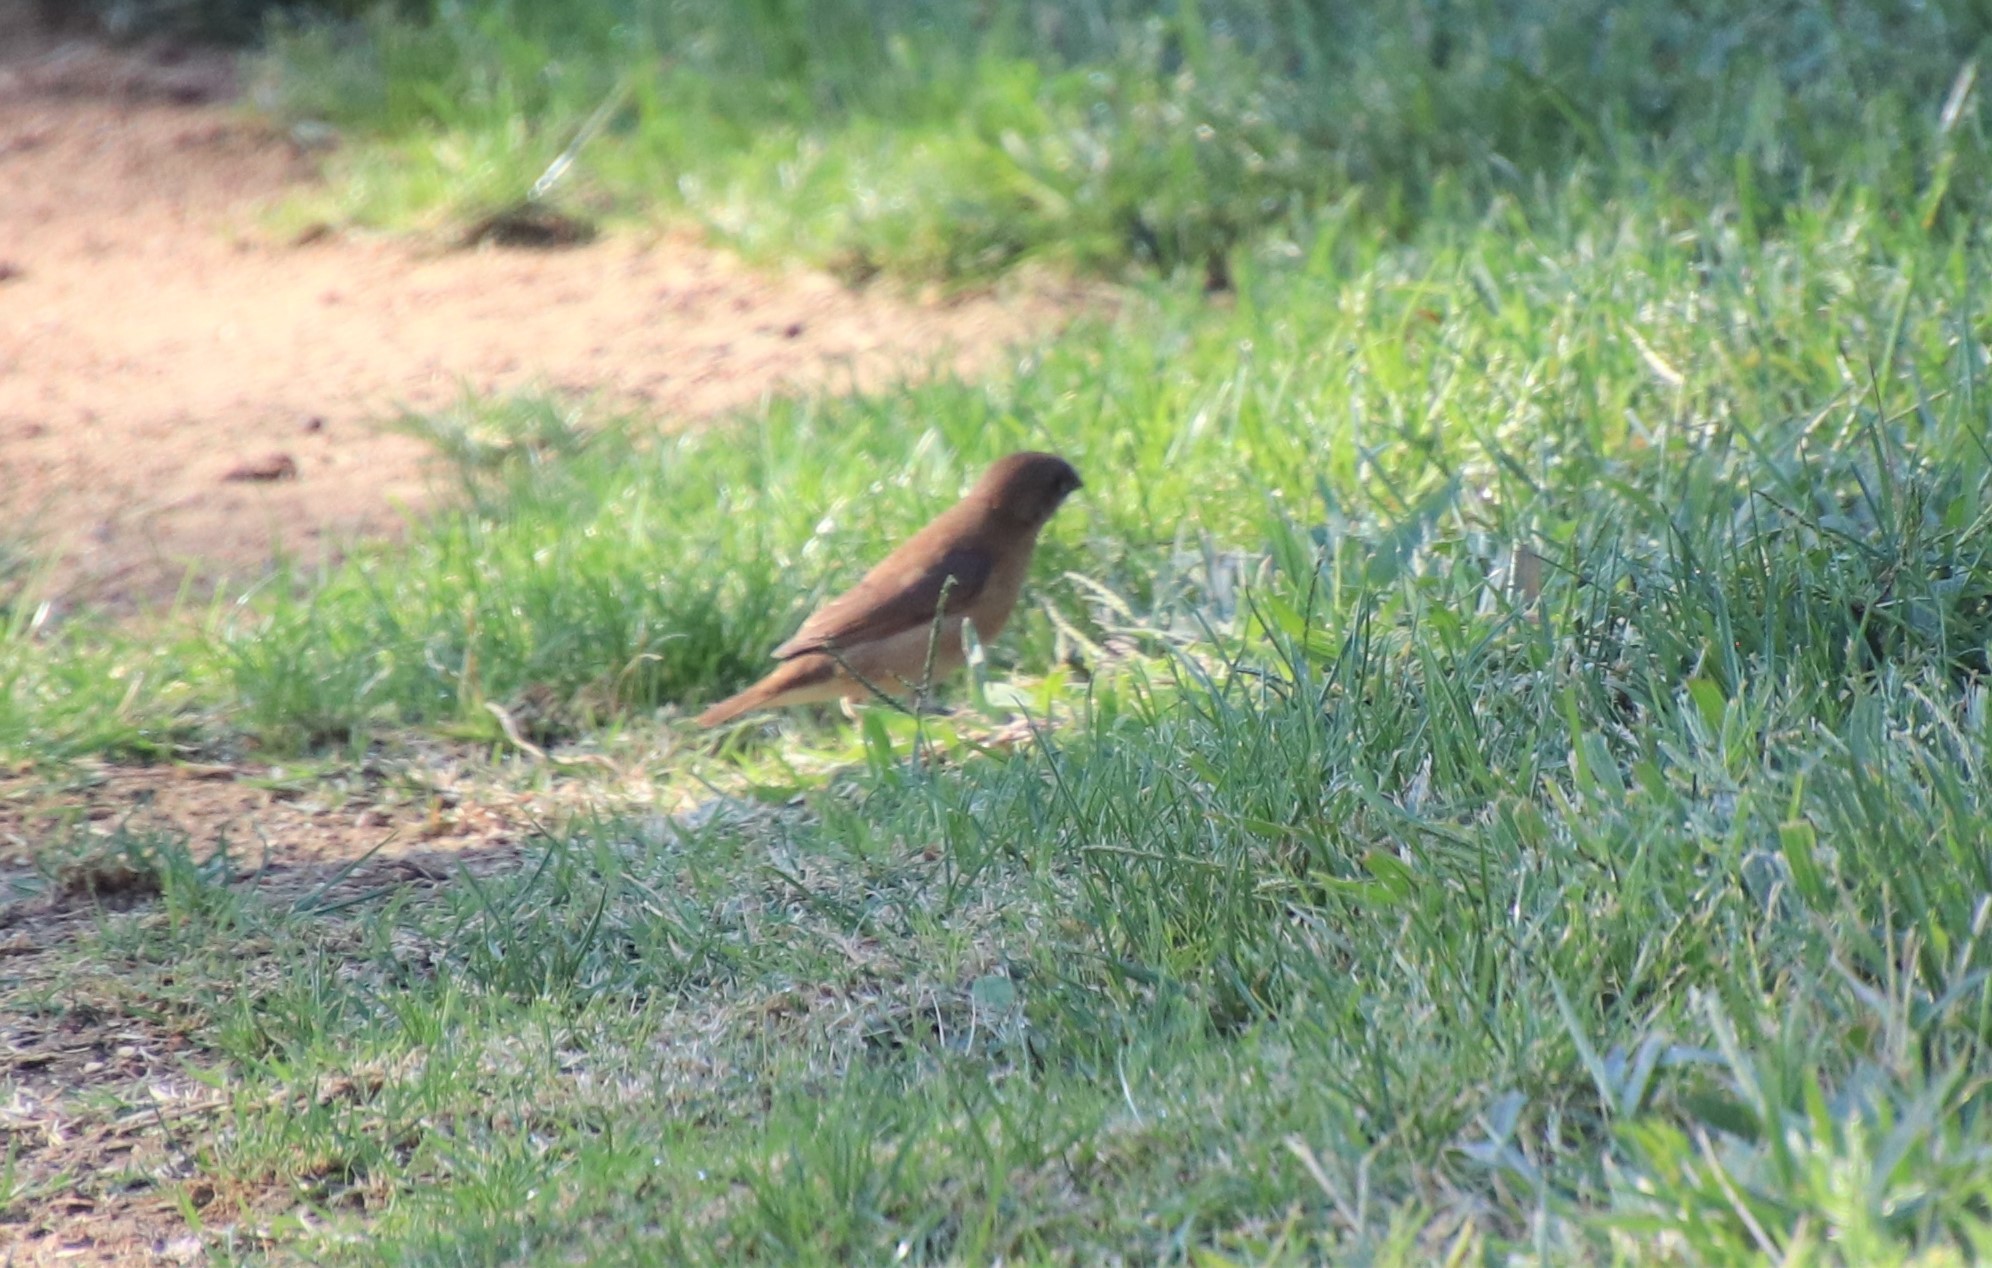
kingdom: Animalia
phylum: Chordata
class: Aves
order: Passeriformes
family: Estrildidae
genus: Lonchura
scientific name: Lonchura punctulata
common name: Scaly-breasted munia
